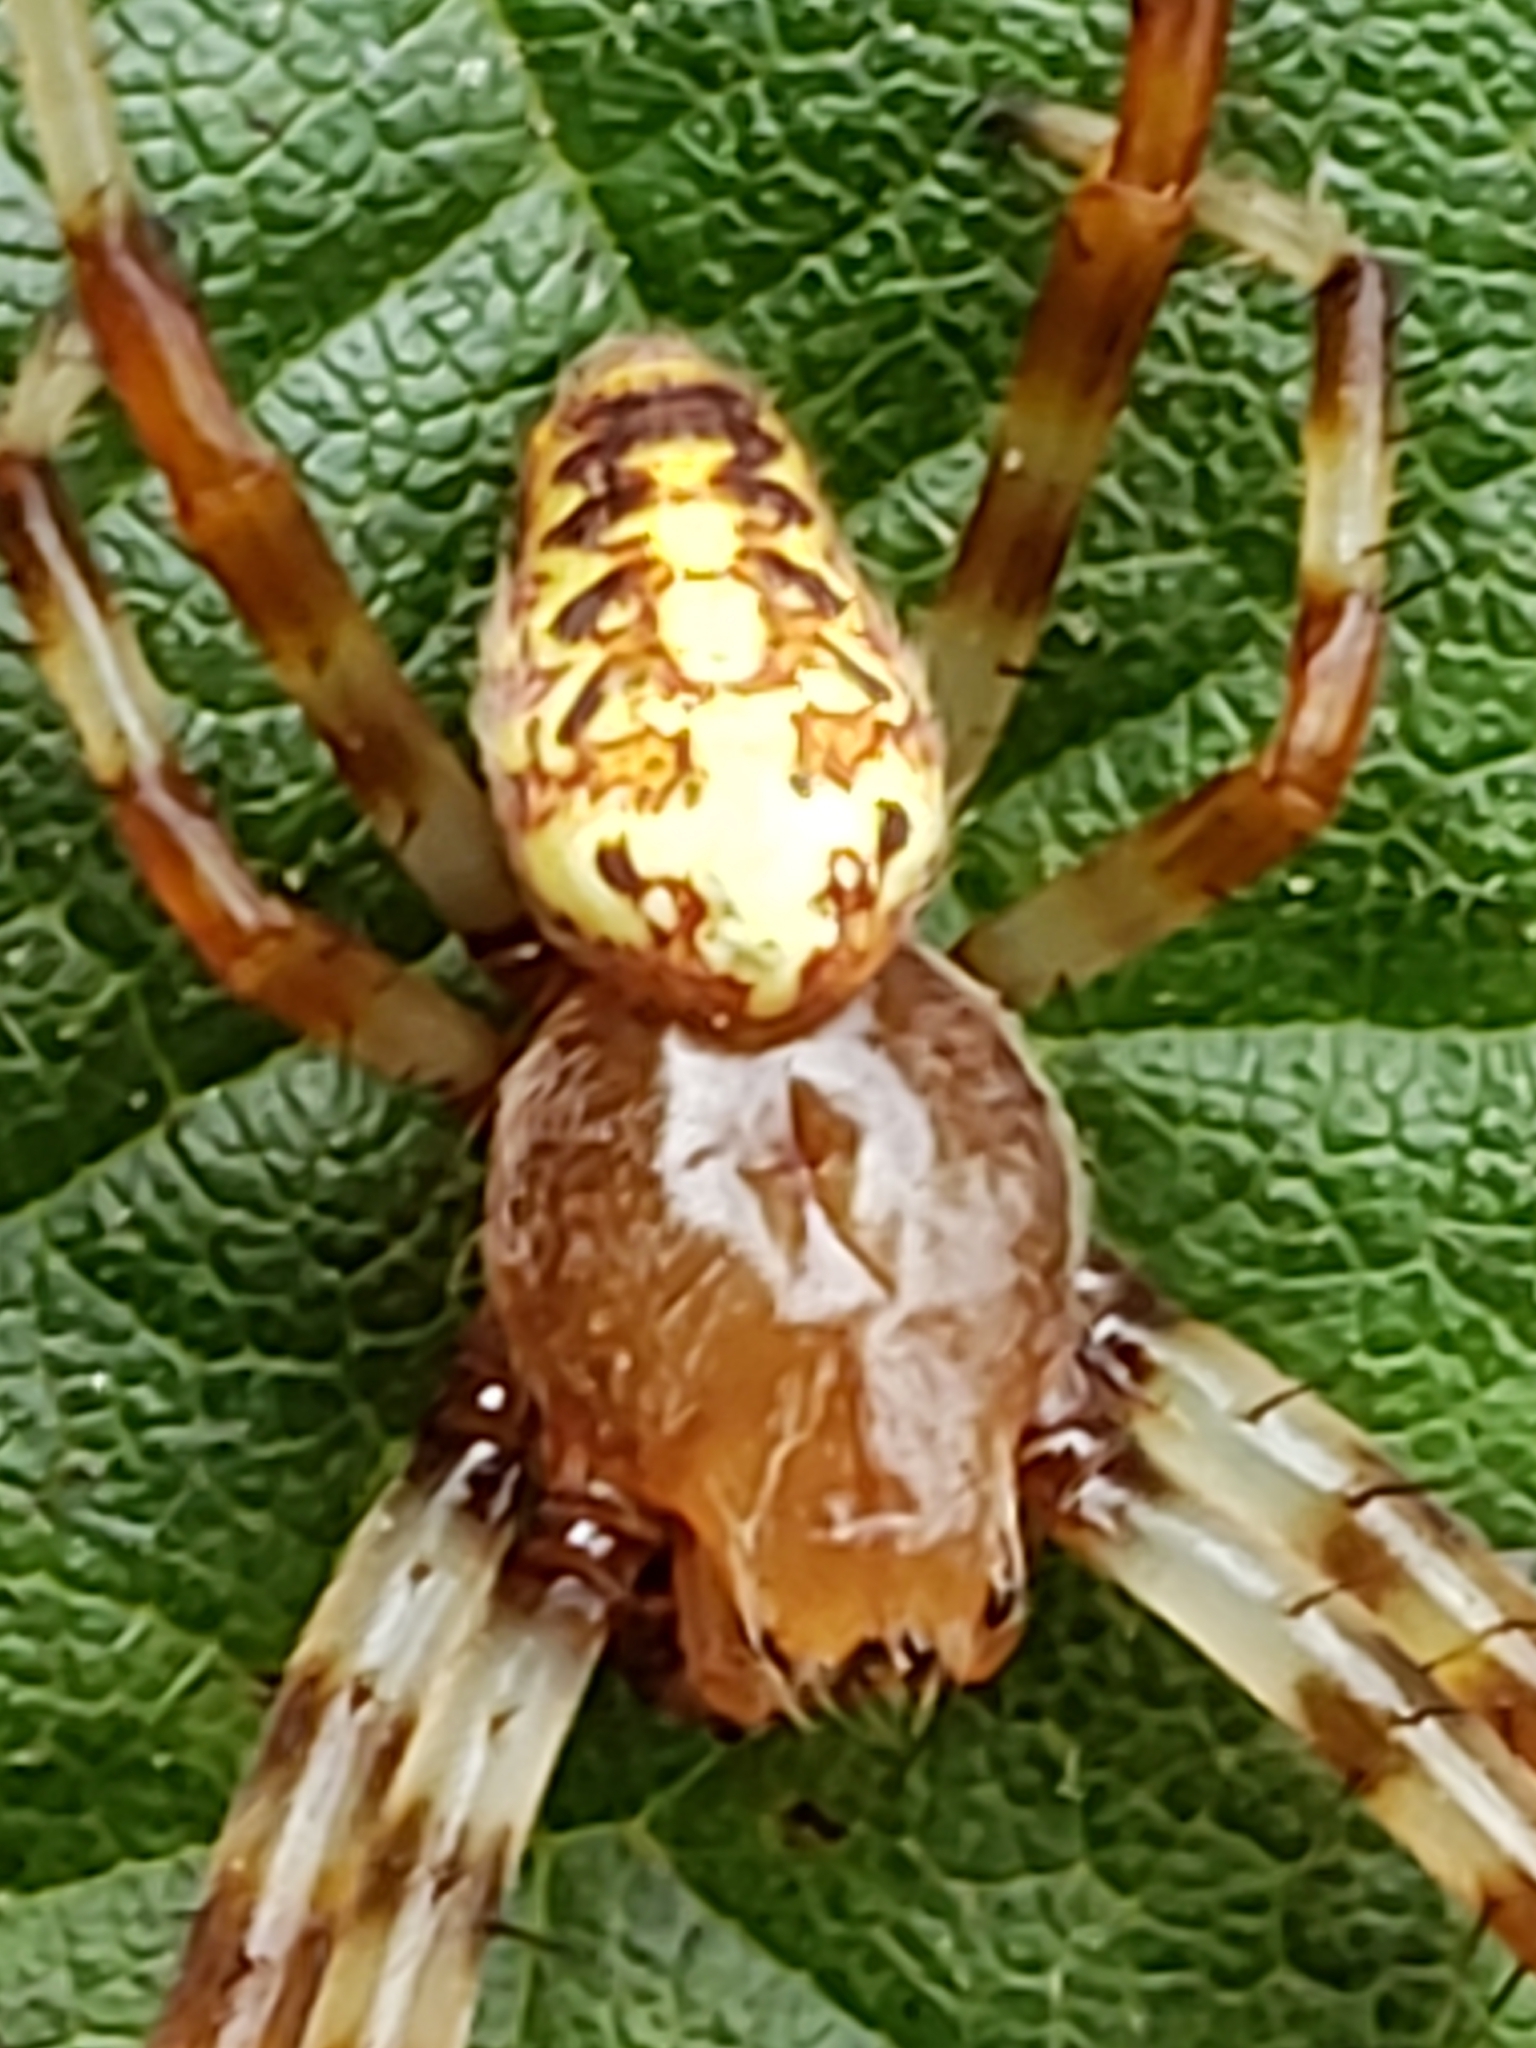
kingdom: Animalia
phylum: Arthropoda
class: Arachnida
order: Araneae
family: Araneidae
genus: Araneus
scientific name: Araneus marmoreus
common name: Marbled orbweaver
